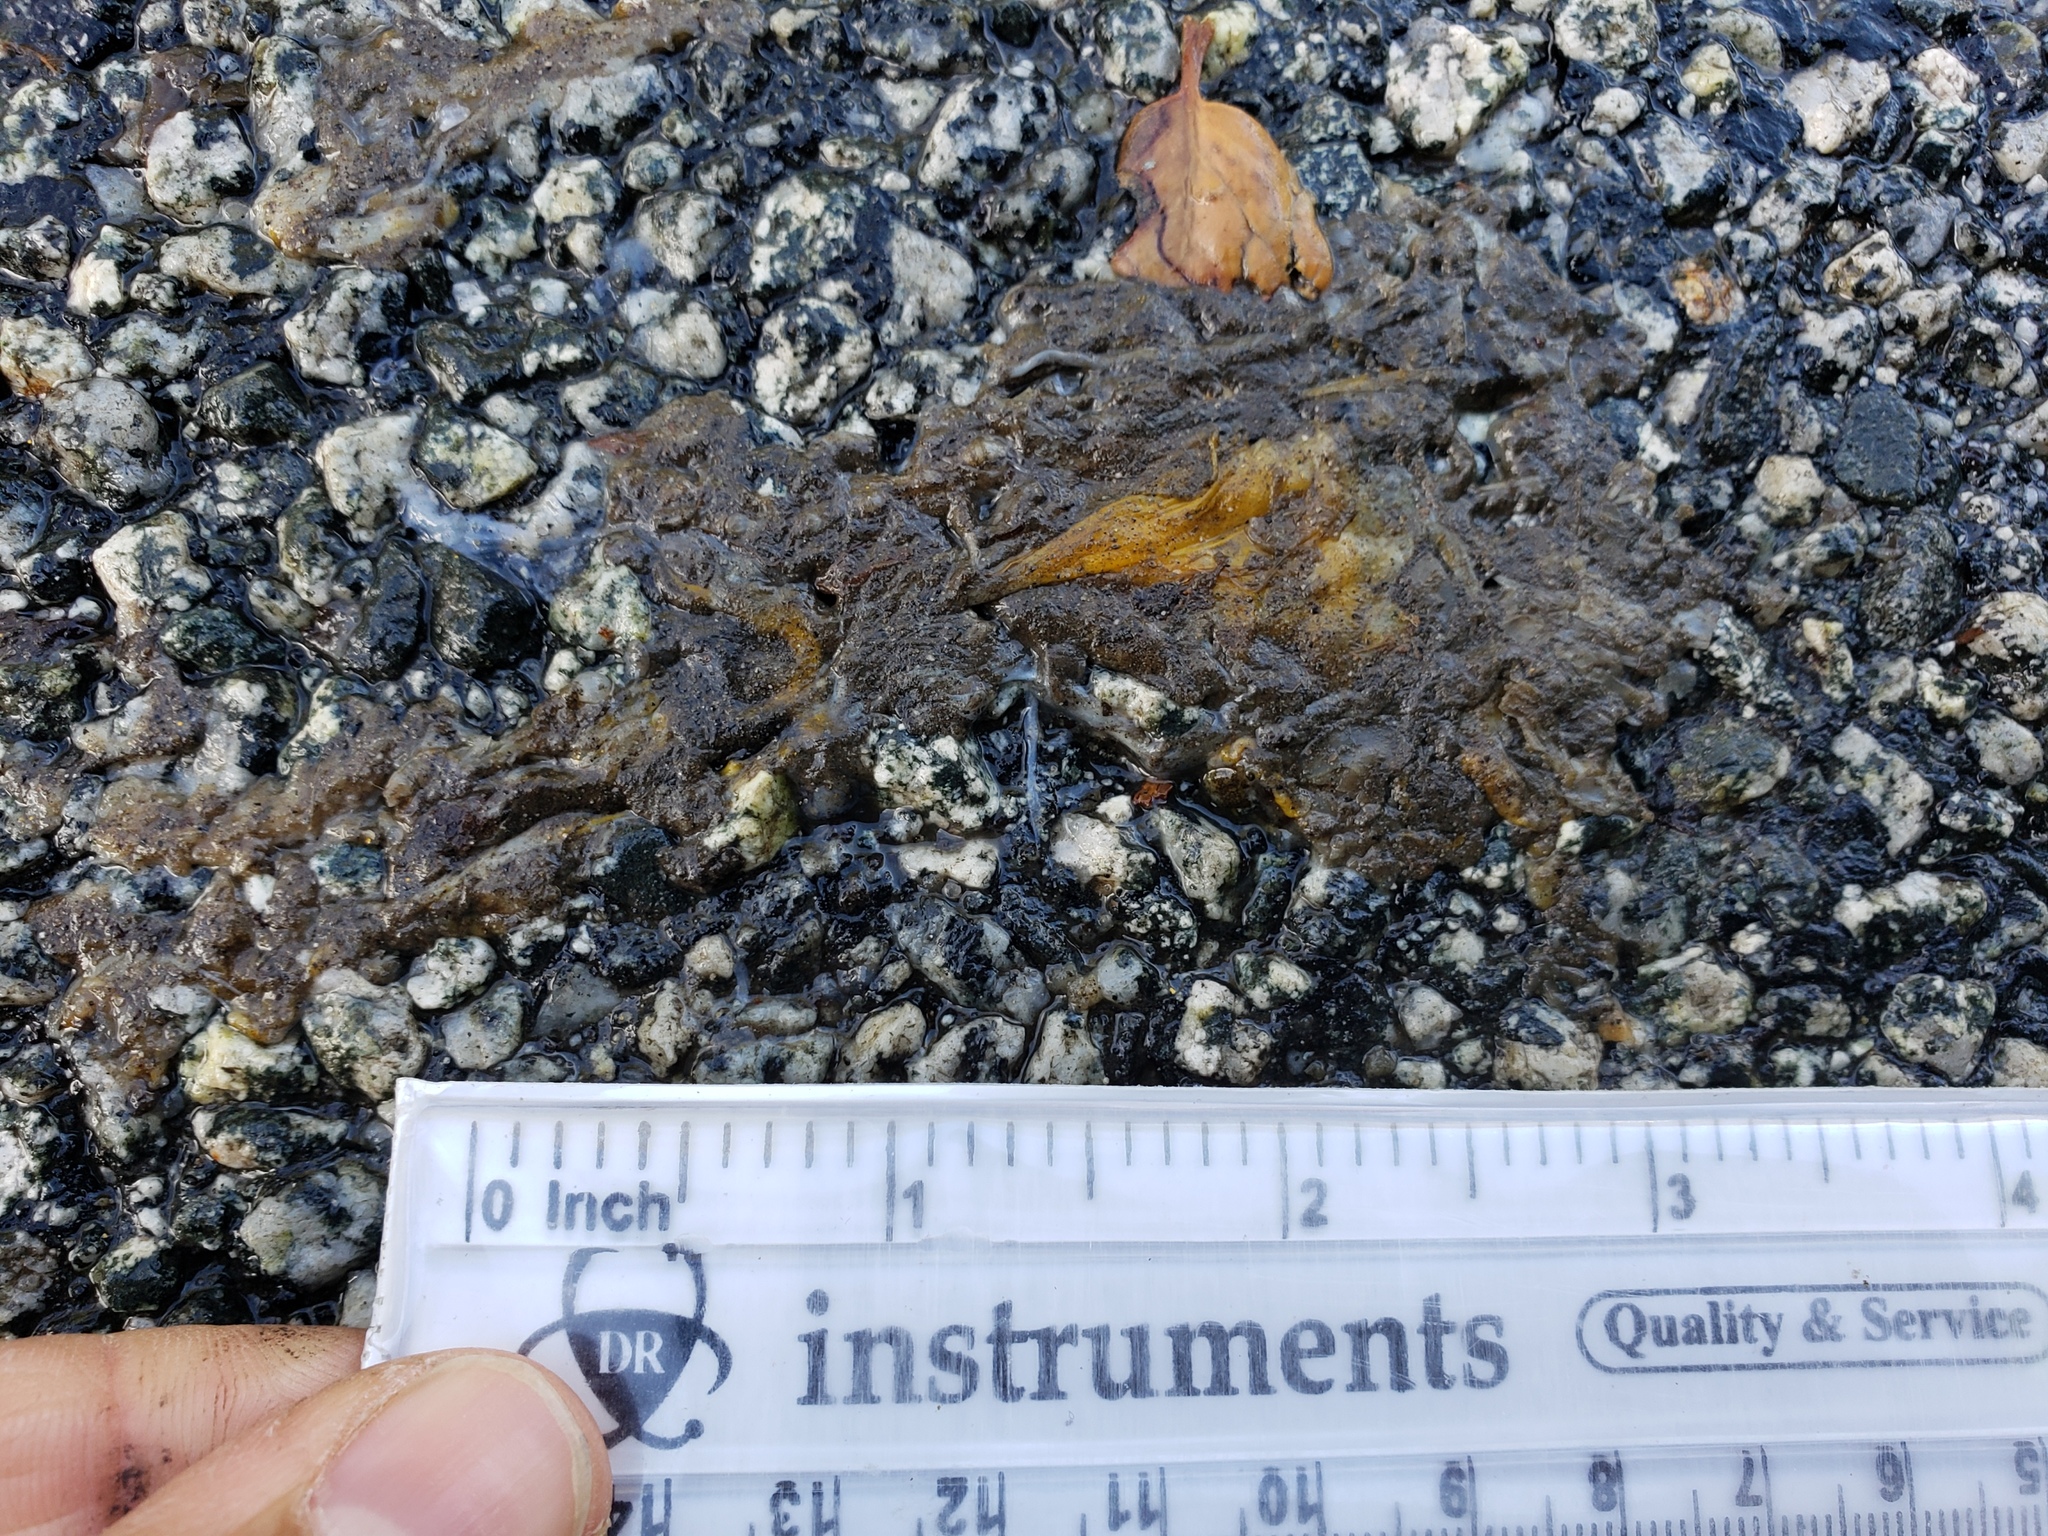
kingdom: Animalia
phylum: Chordata
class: Amphibia
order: Caudata
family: Salamandridae
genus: Taricha
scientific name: Taricha
